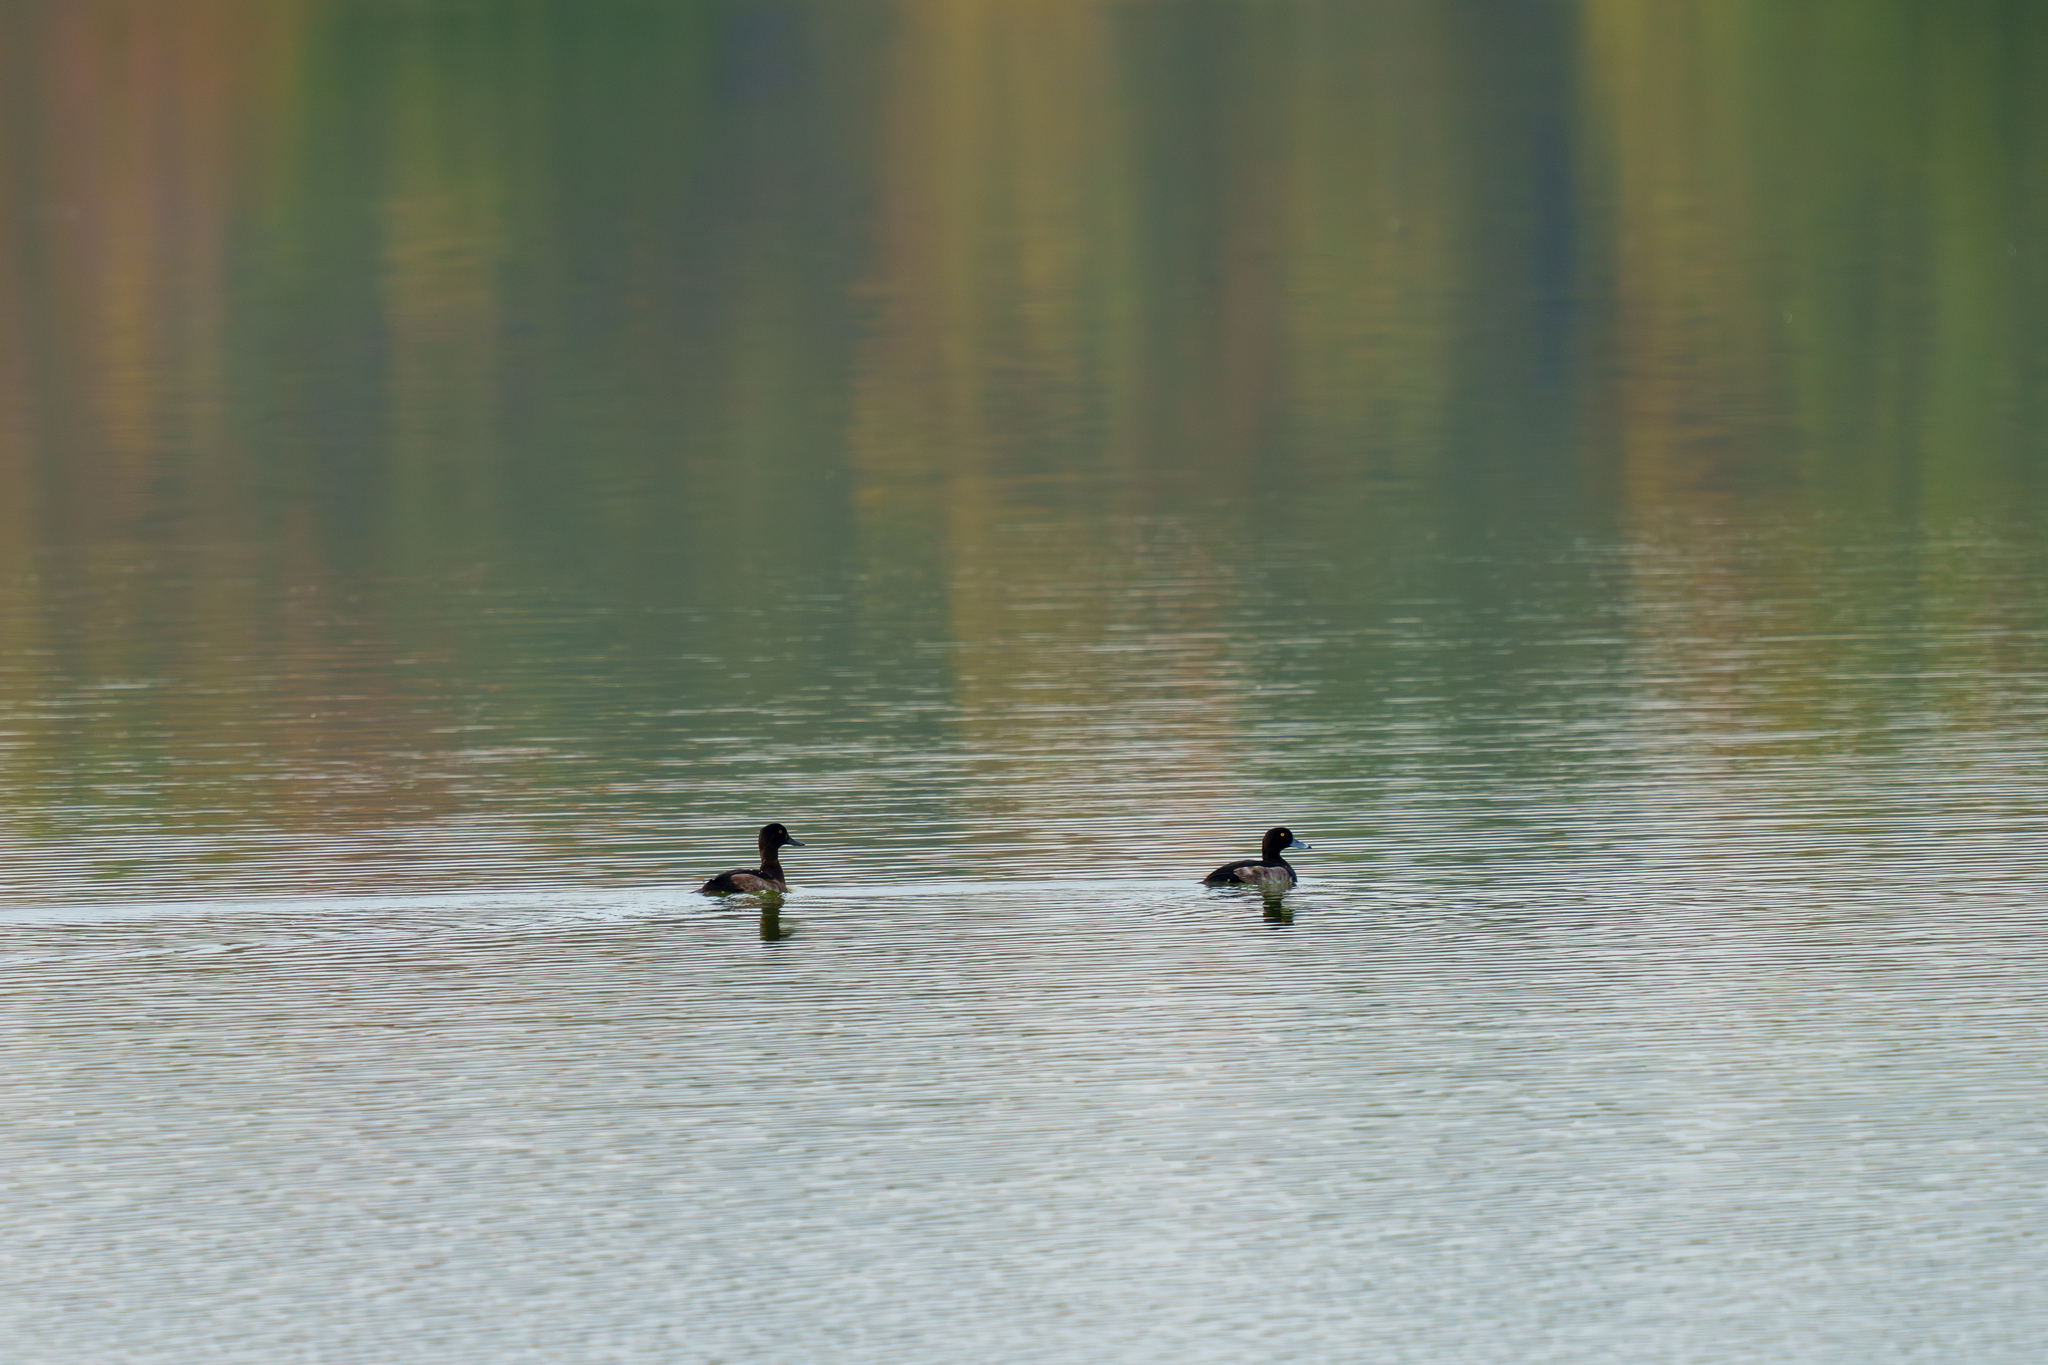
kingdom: Animalia
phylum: Chordata
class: Aves
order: Anseriformes
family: Anatidae
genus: Aythya
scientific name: Aythya fuligula
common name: Tufted duck
